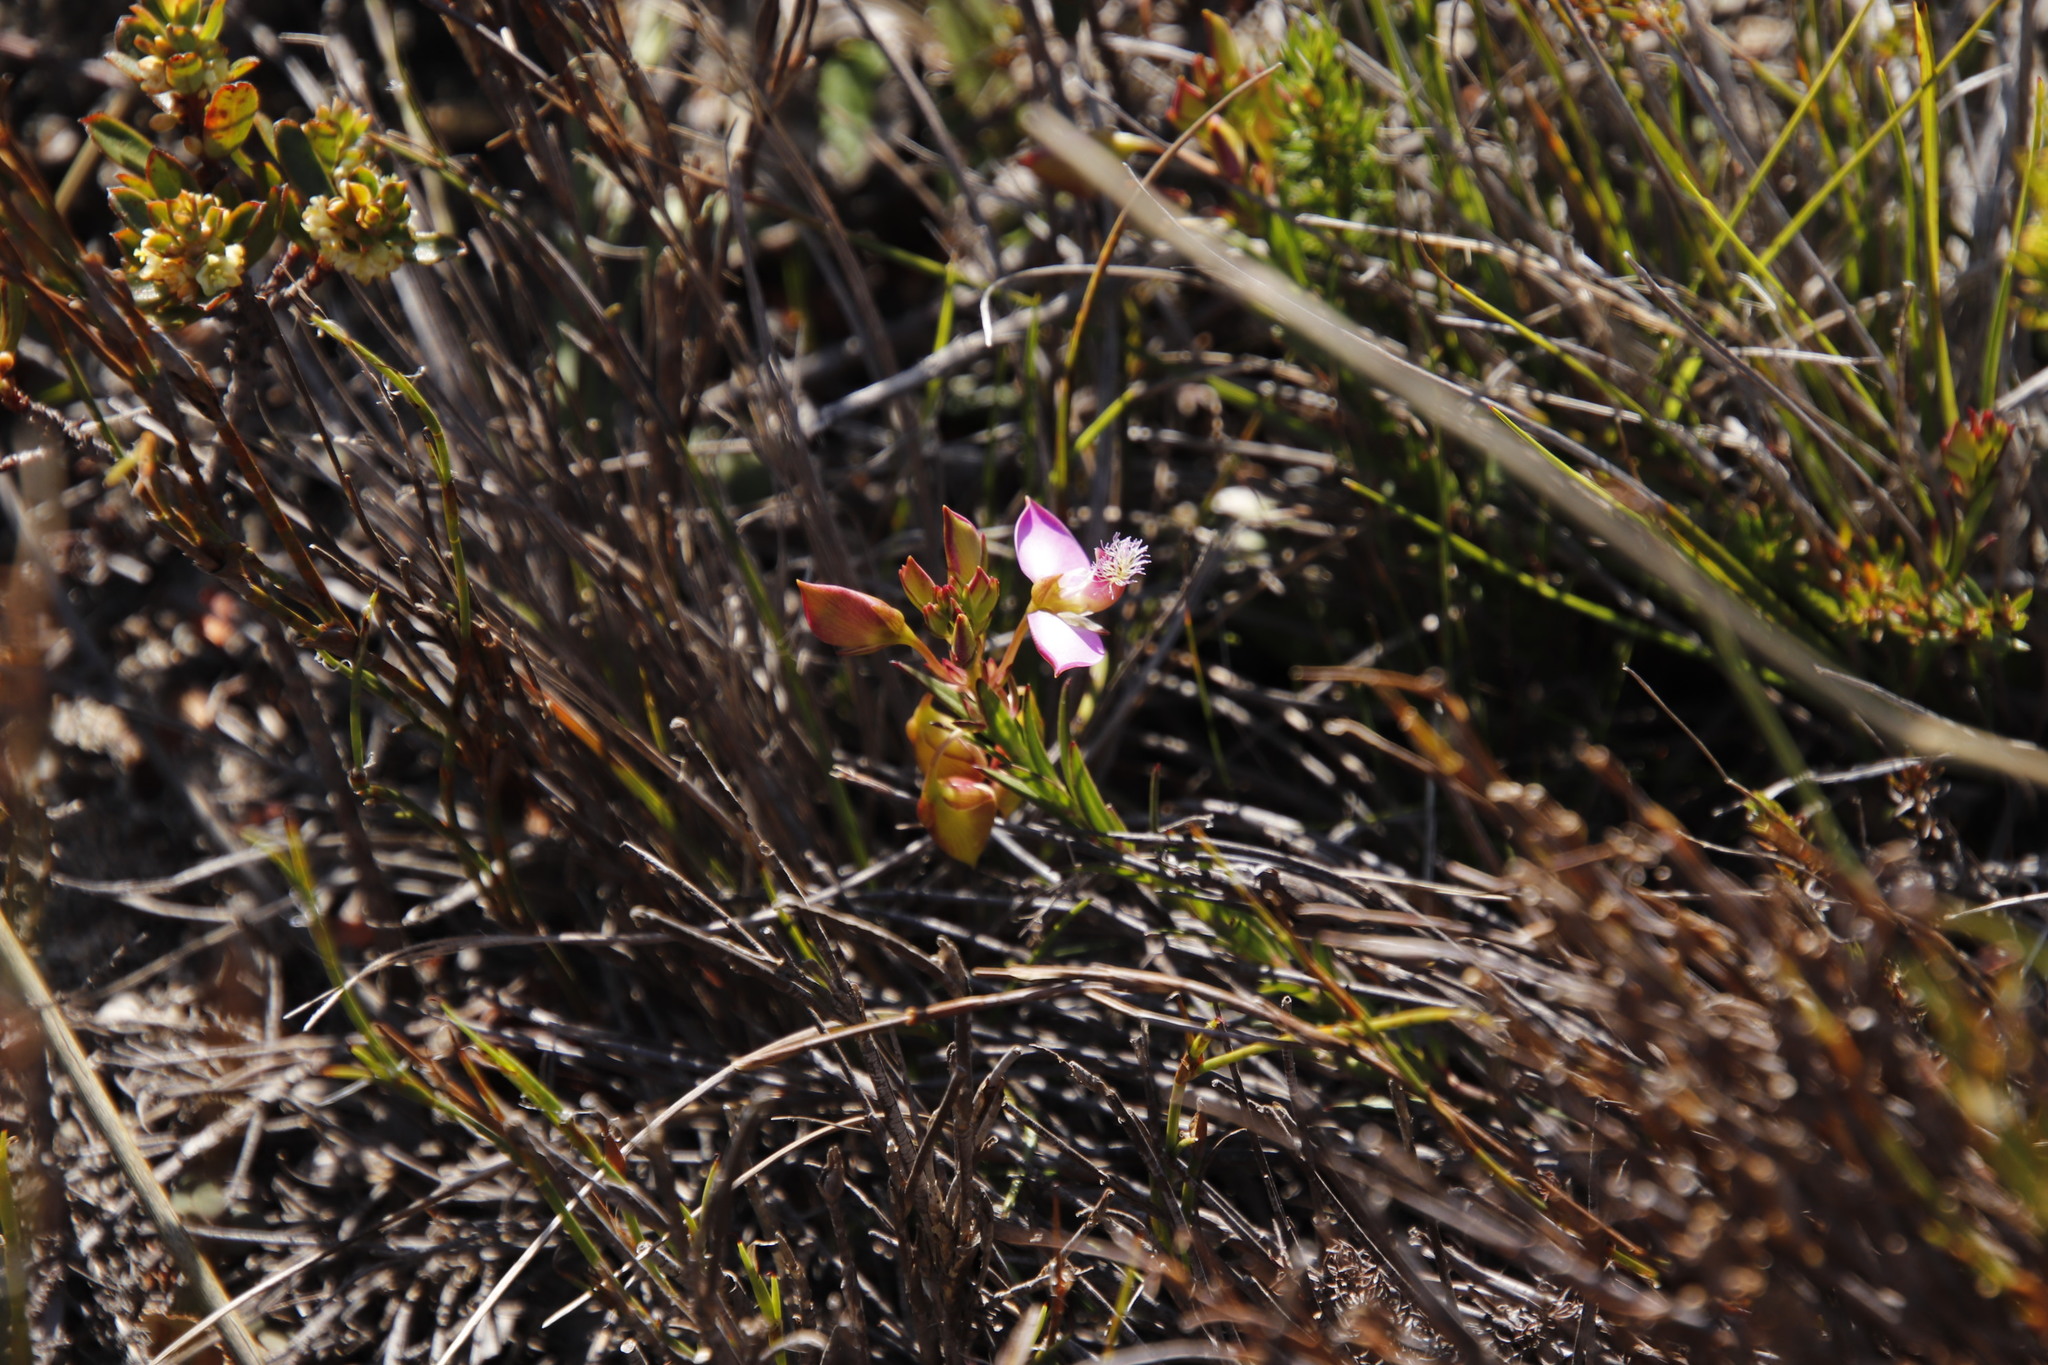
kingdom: Plantae
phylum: Tracheophyta
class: Magnoliopsida
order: Fabales
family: Polygalaceae
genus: Polygala
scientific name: Polygala bracteolata
